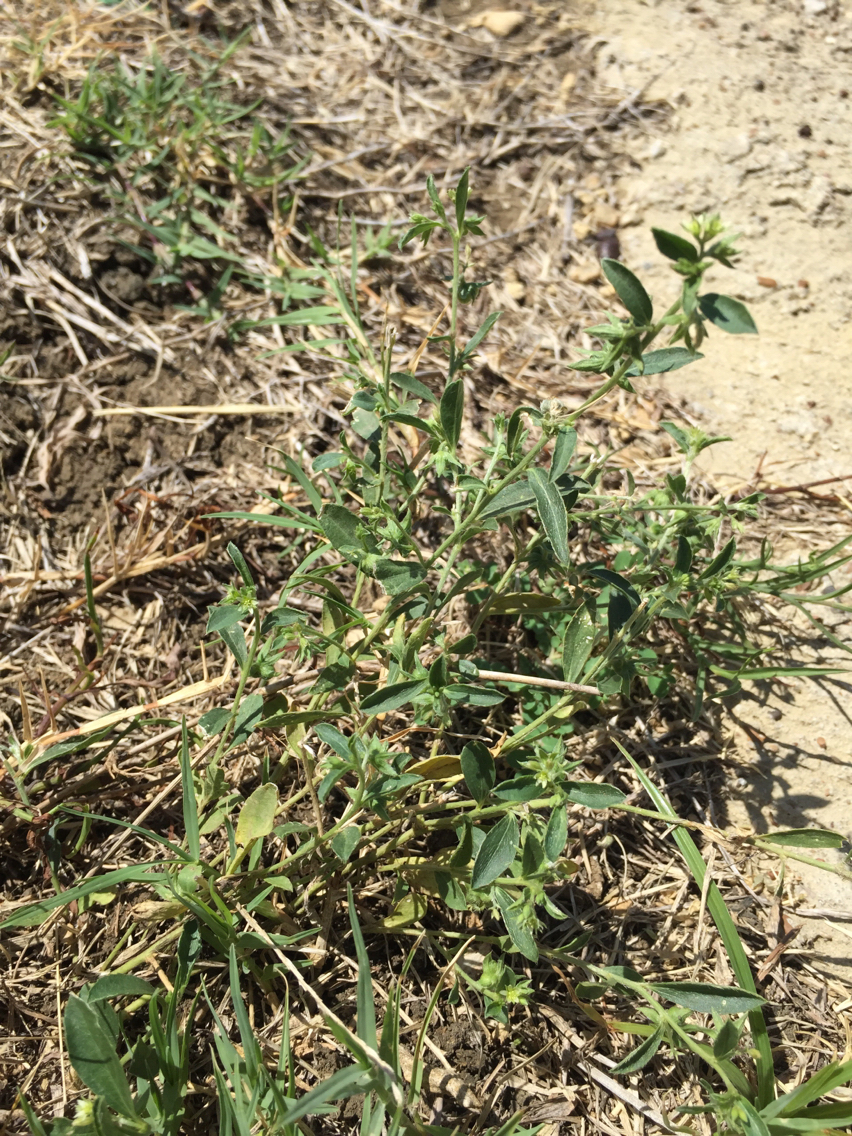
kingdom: Plantae
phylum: Tracheophyta
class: Magnoliopsida
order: Malpighiales
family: Euphorbiaceae
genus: Ditaxis
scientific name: Ditaxis humilis
